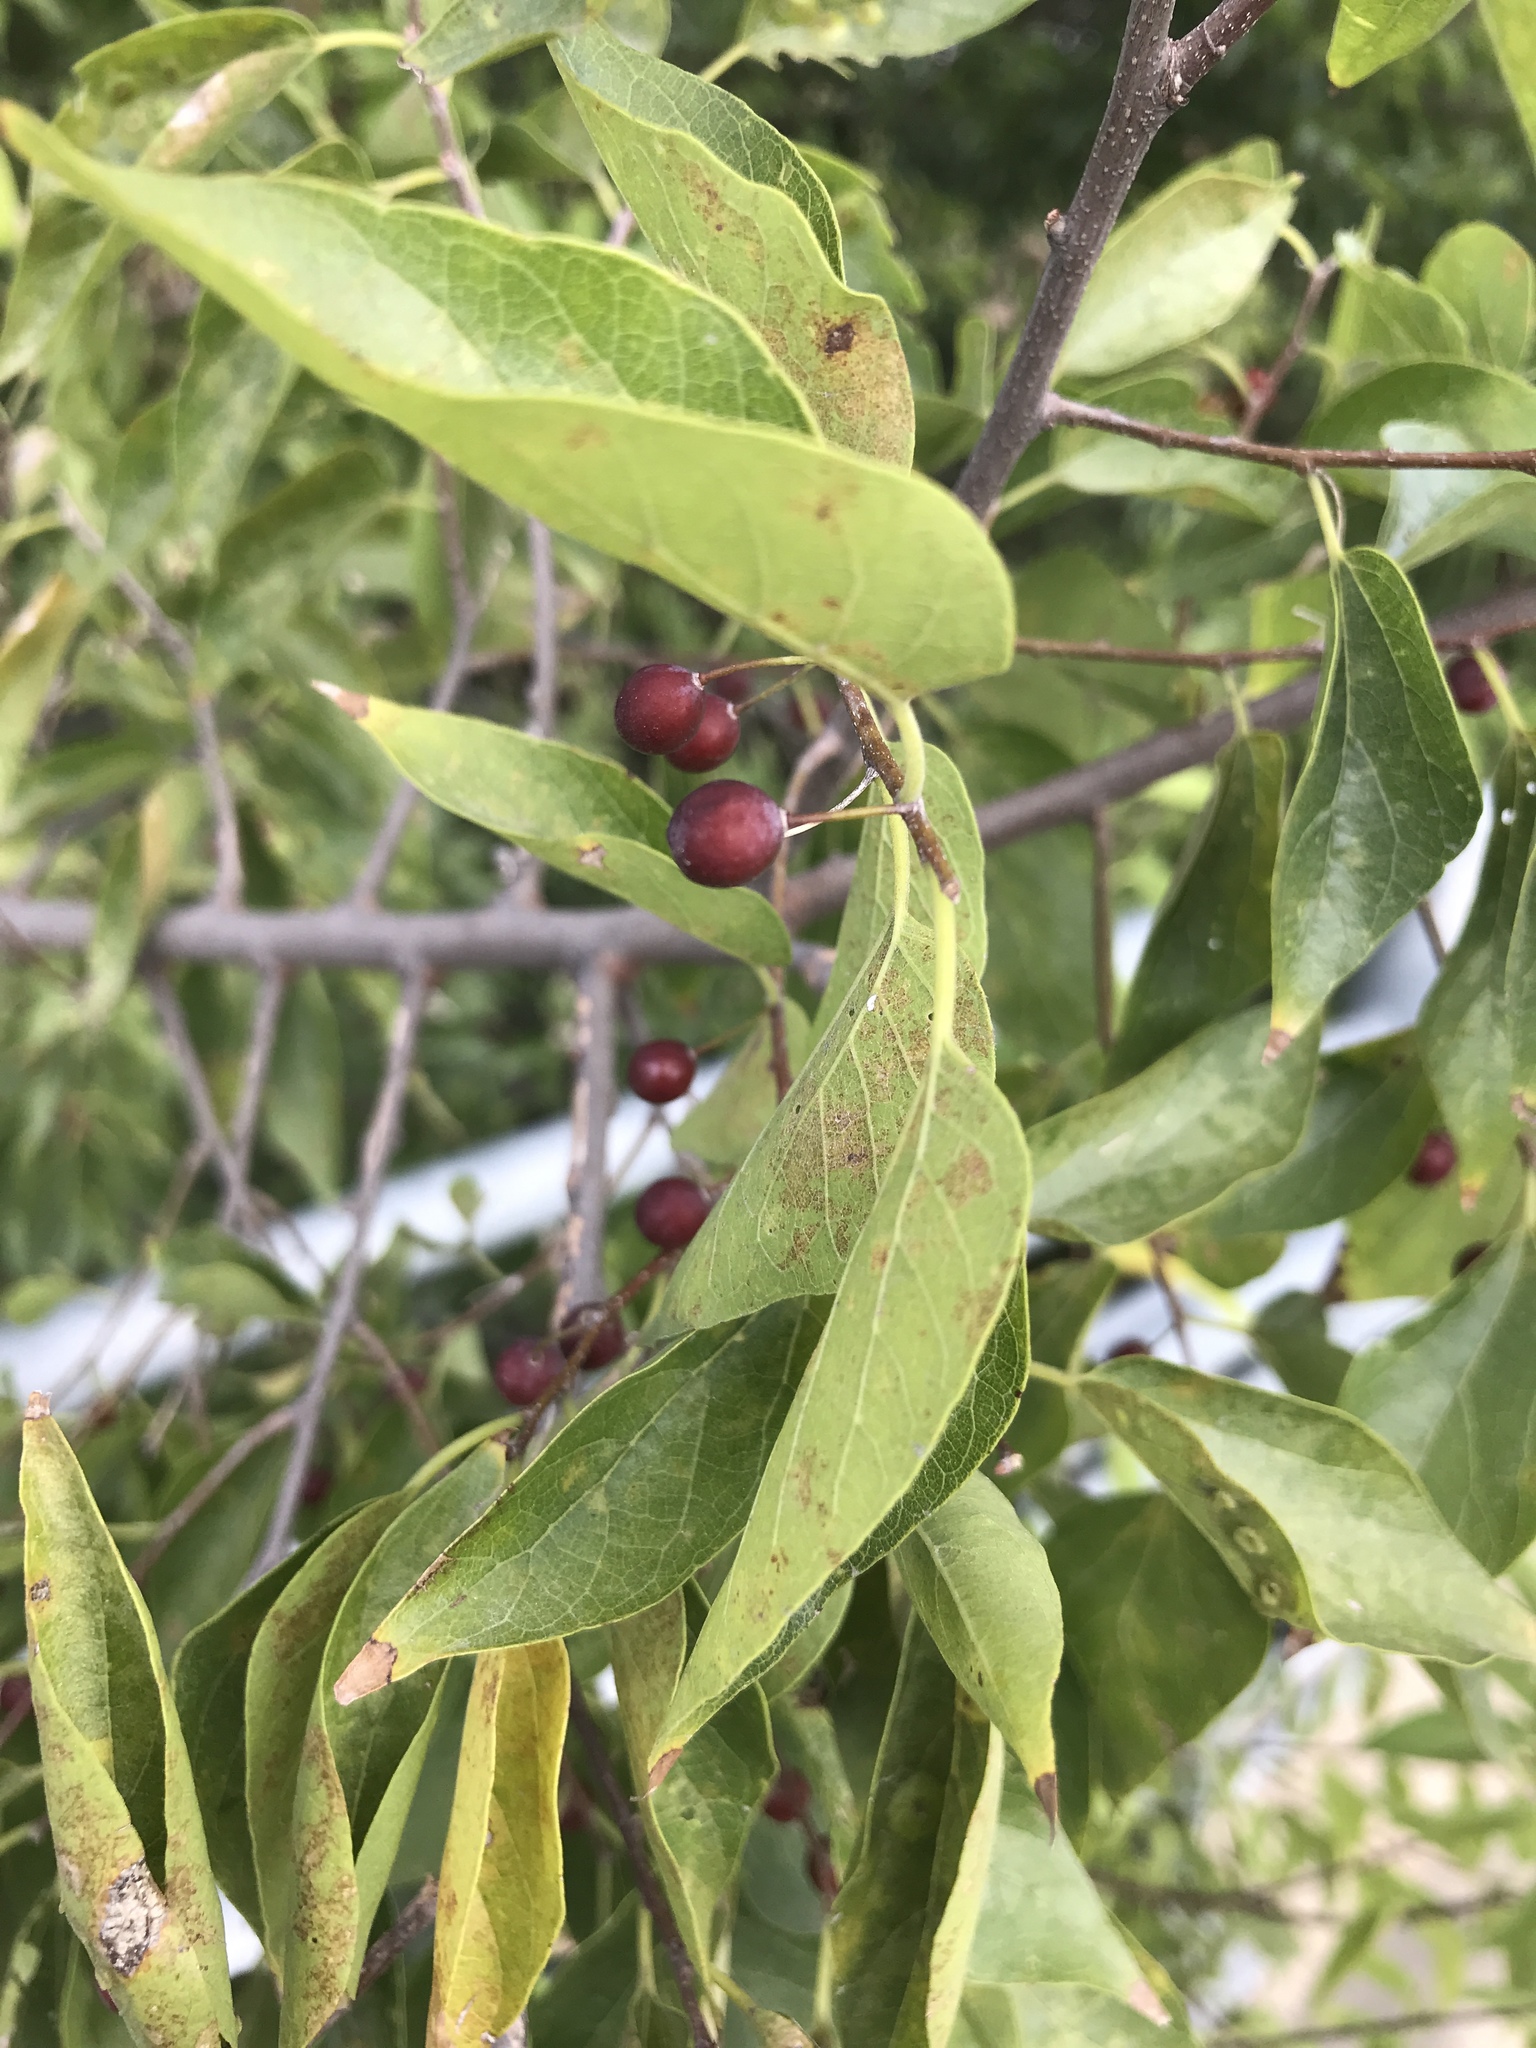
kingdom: Plantae
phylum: Tracheophyta
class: Magnoliopsida
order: Rosales
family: Cannabaceae
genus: Celtis
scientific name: Celtis laevigata
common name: Sugarberry
